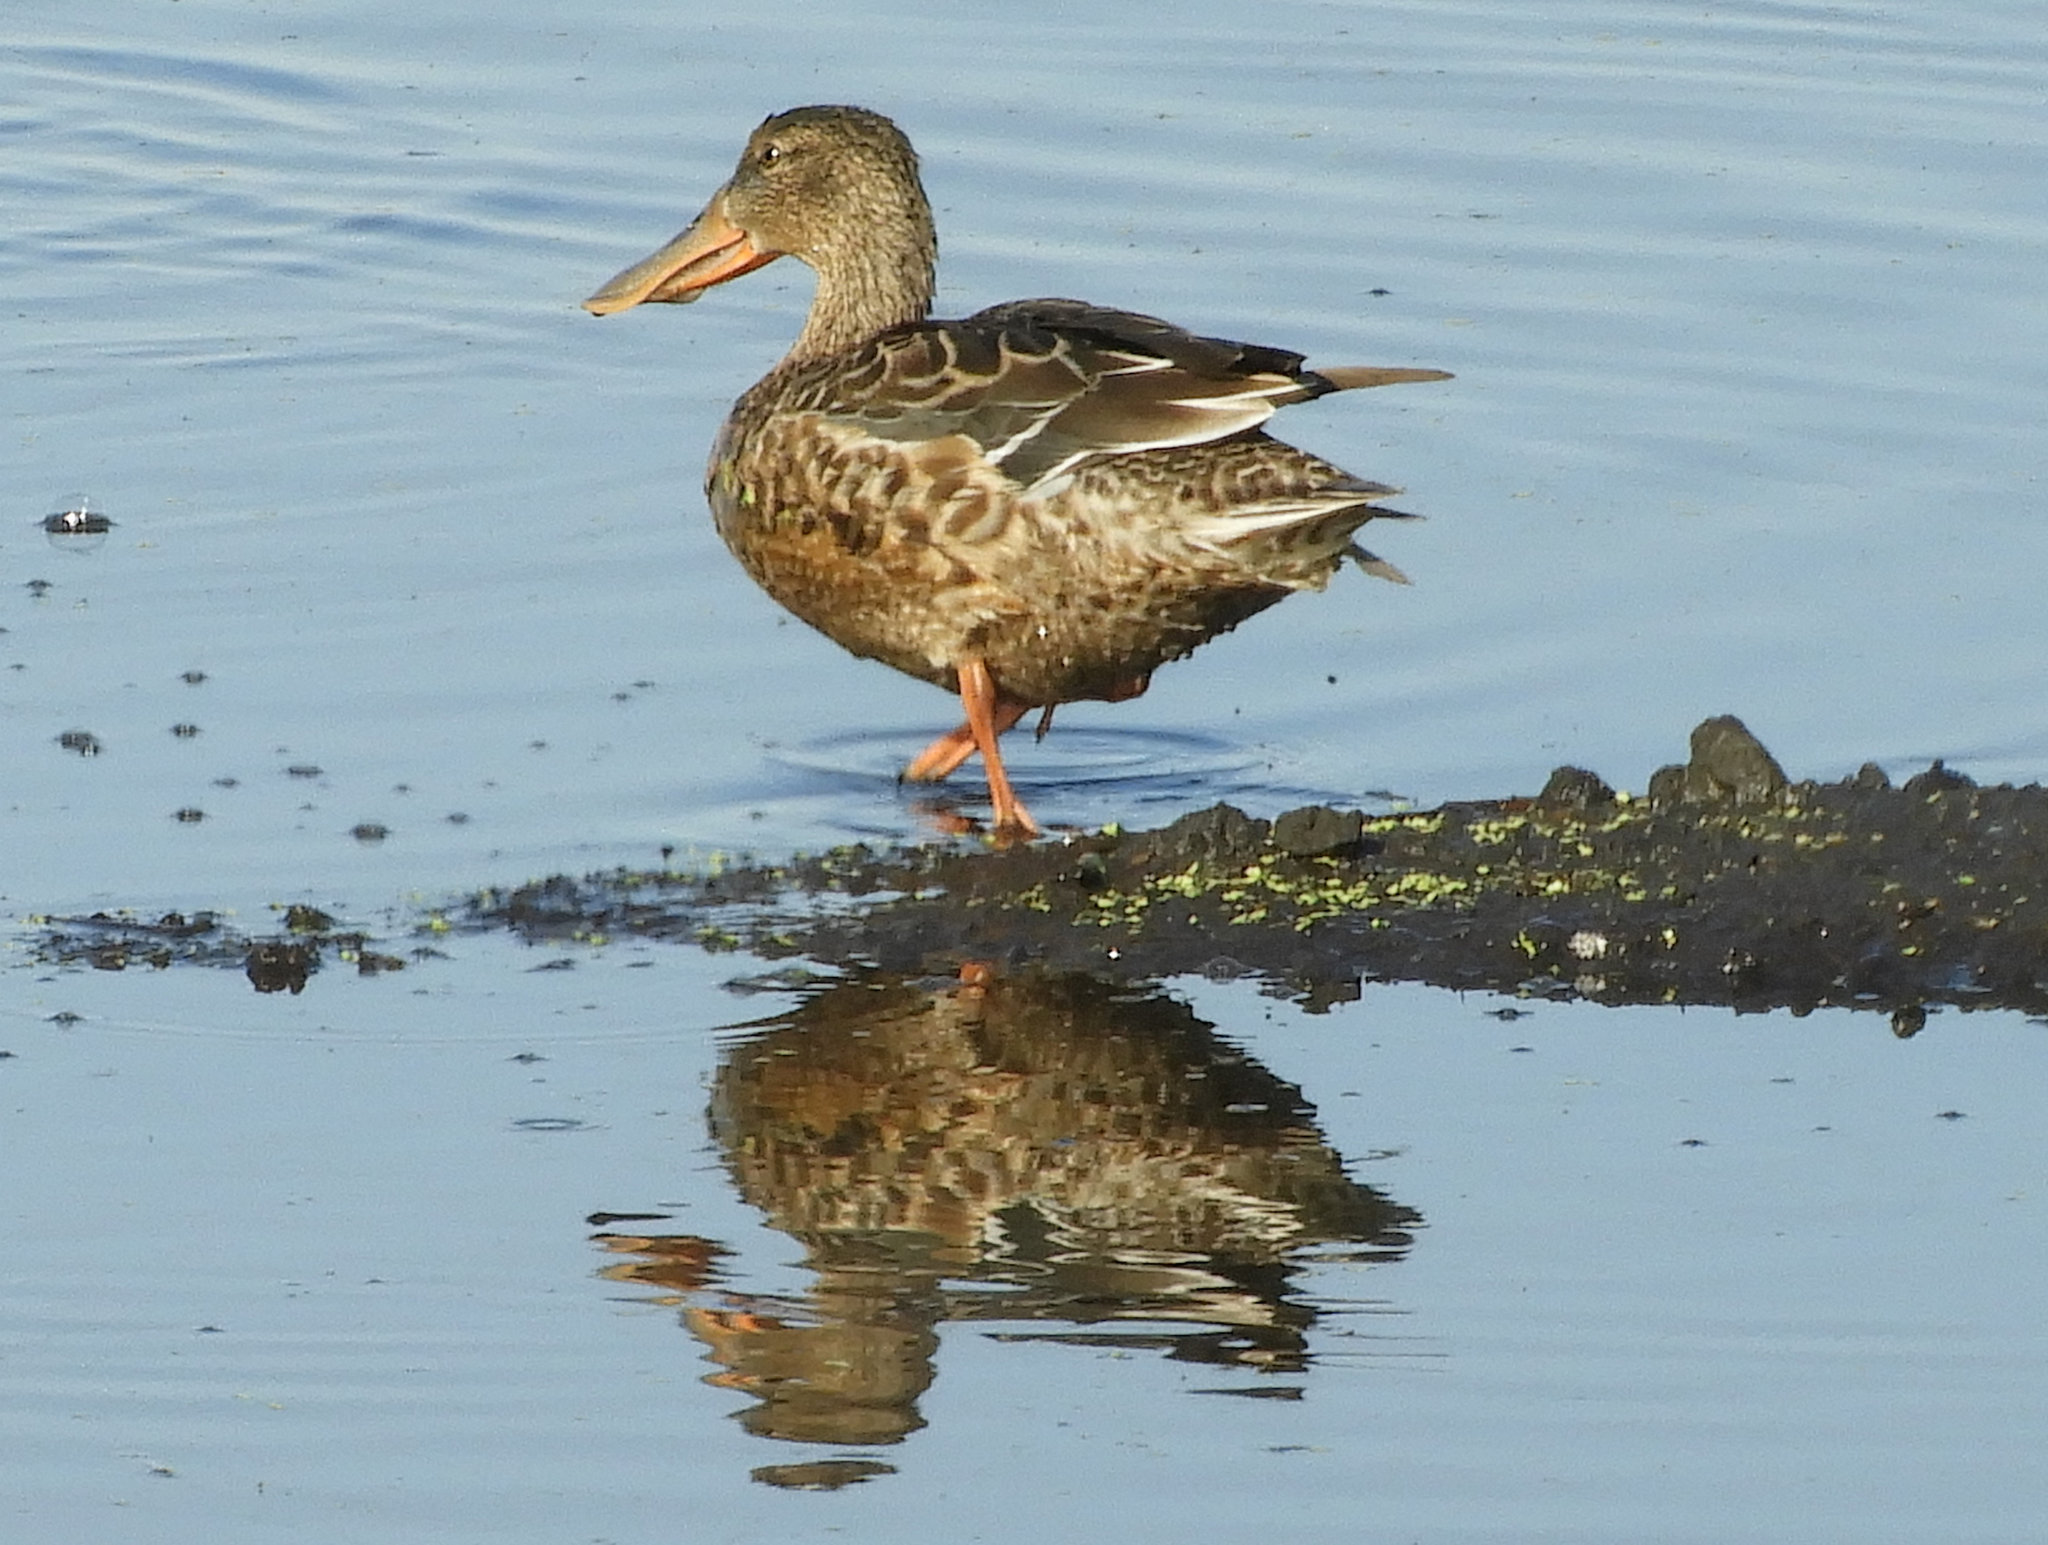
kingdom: Animalia
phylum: Chordata
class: Aves
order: Anseriformes
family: Anatidae
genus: Spatula
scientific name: Spatula clypeata
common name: Northern shoveler
